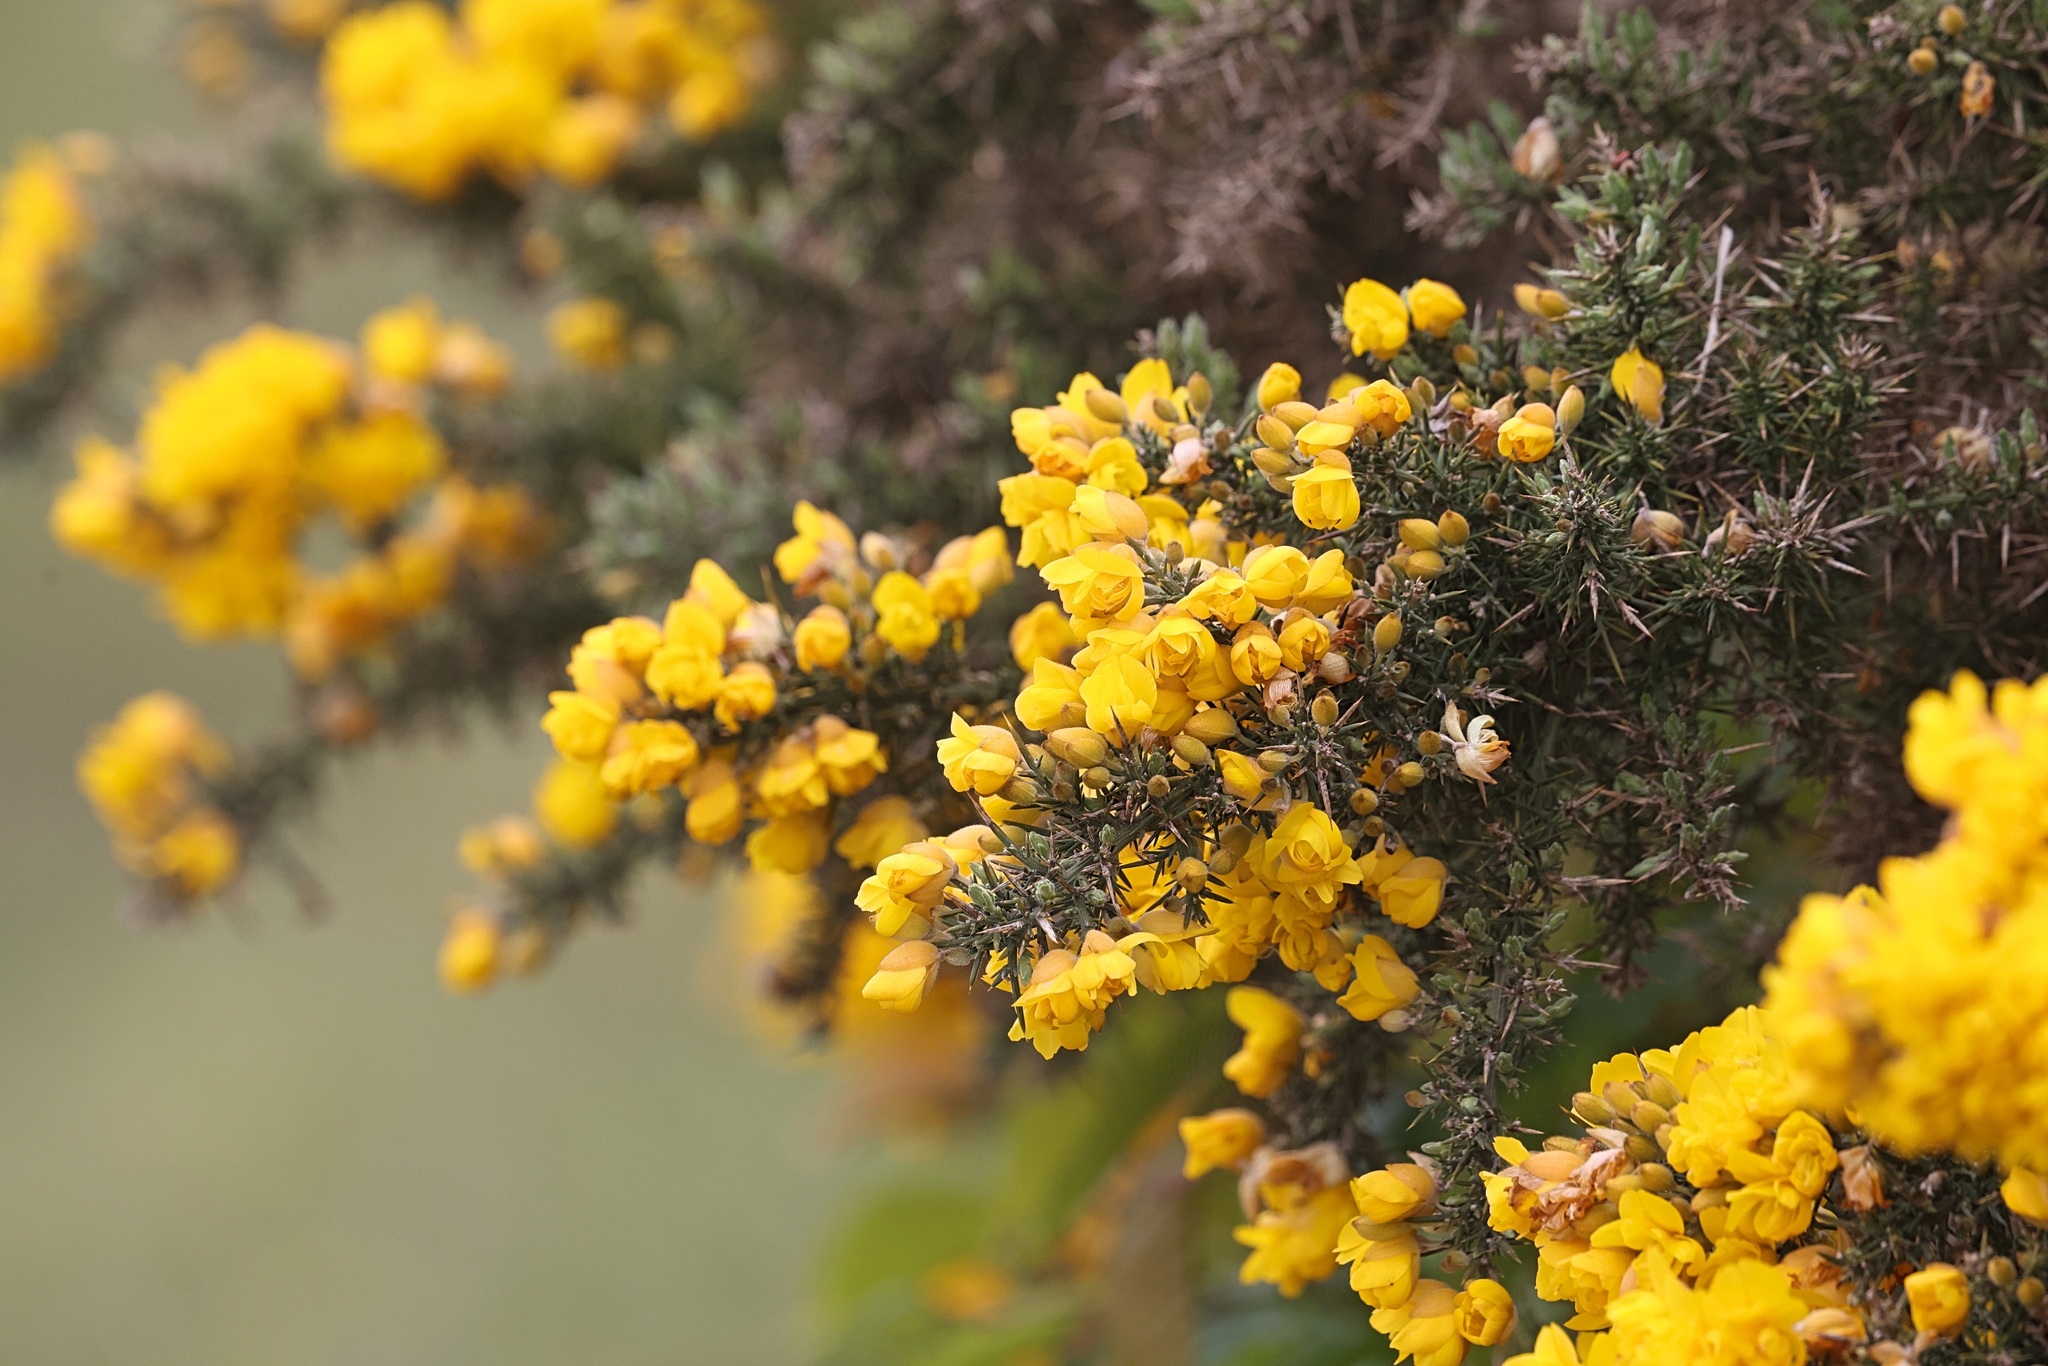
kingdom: Plantae
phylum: Tracheophyta
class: Magnoliopsida
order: Fabales
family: Fabaceae
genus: Ulex
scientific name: Ulex europaeus
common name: Common gorse
